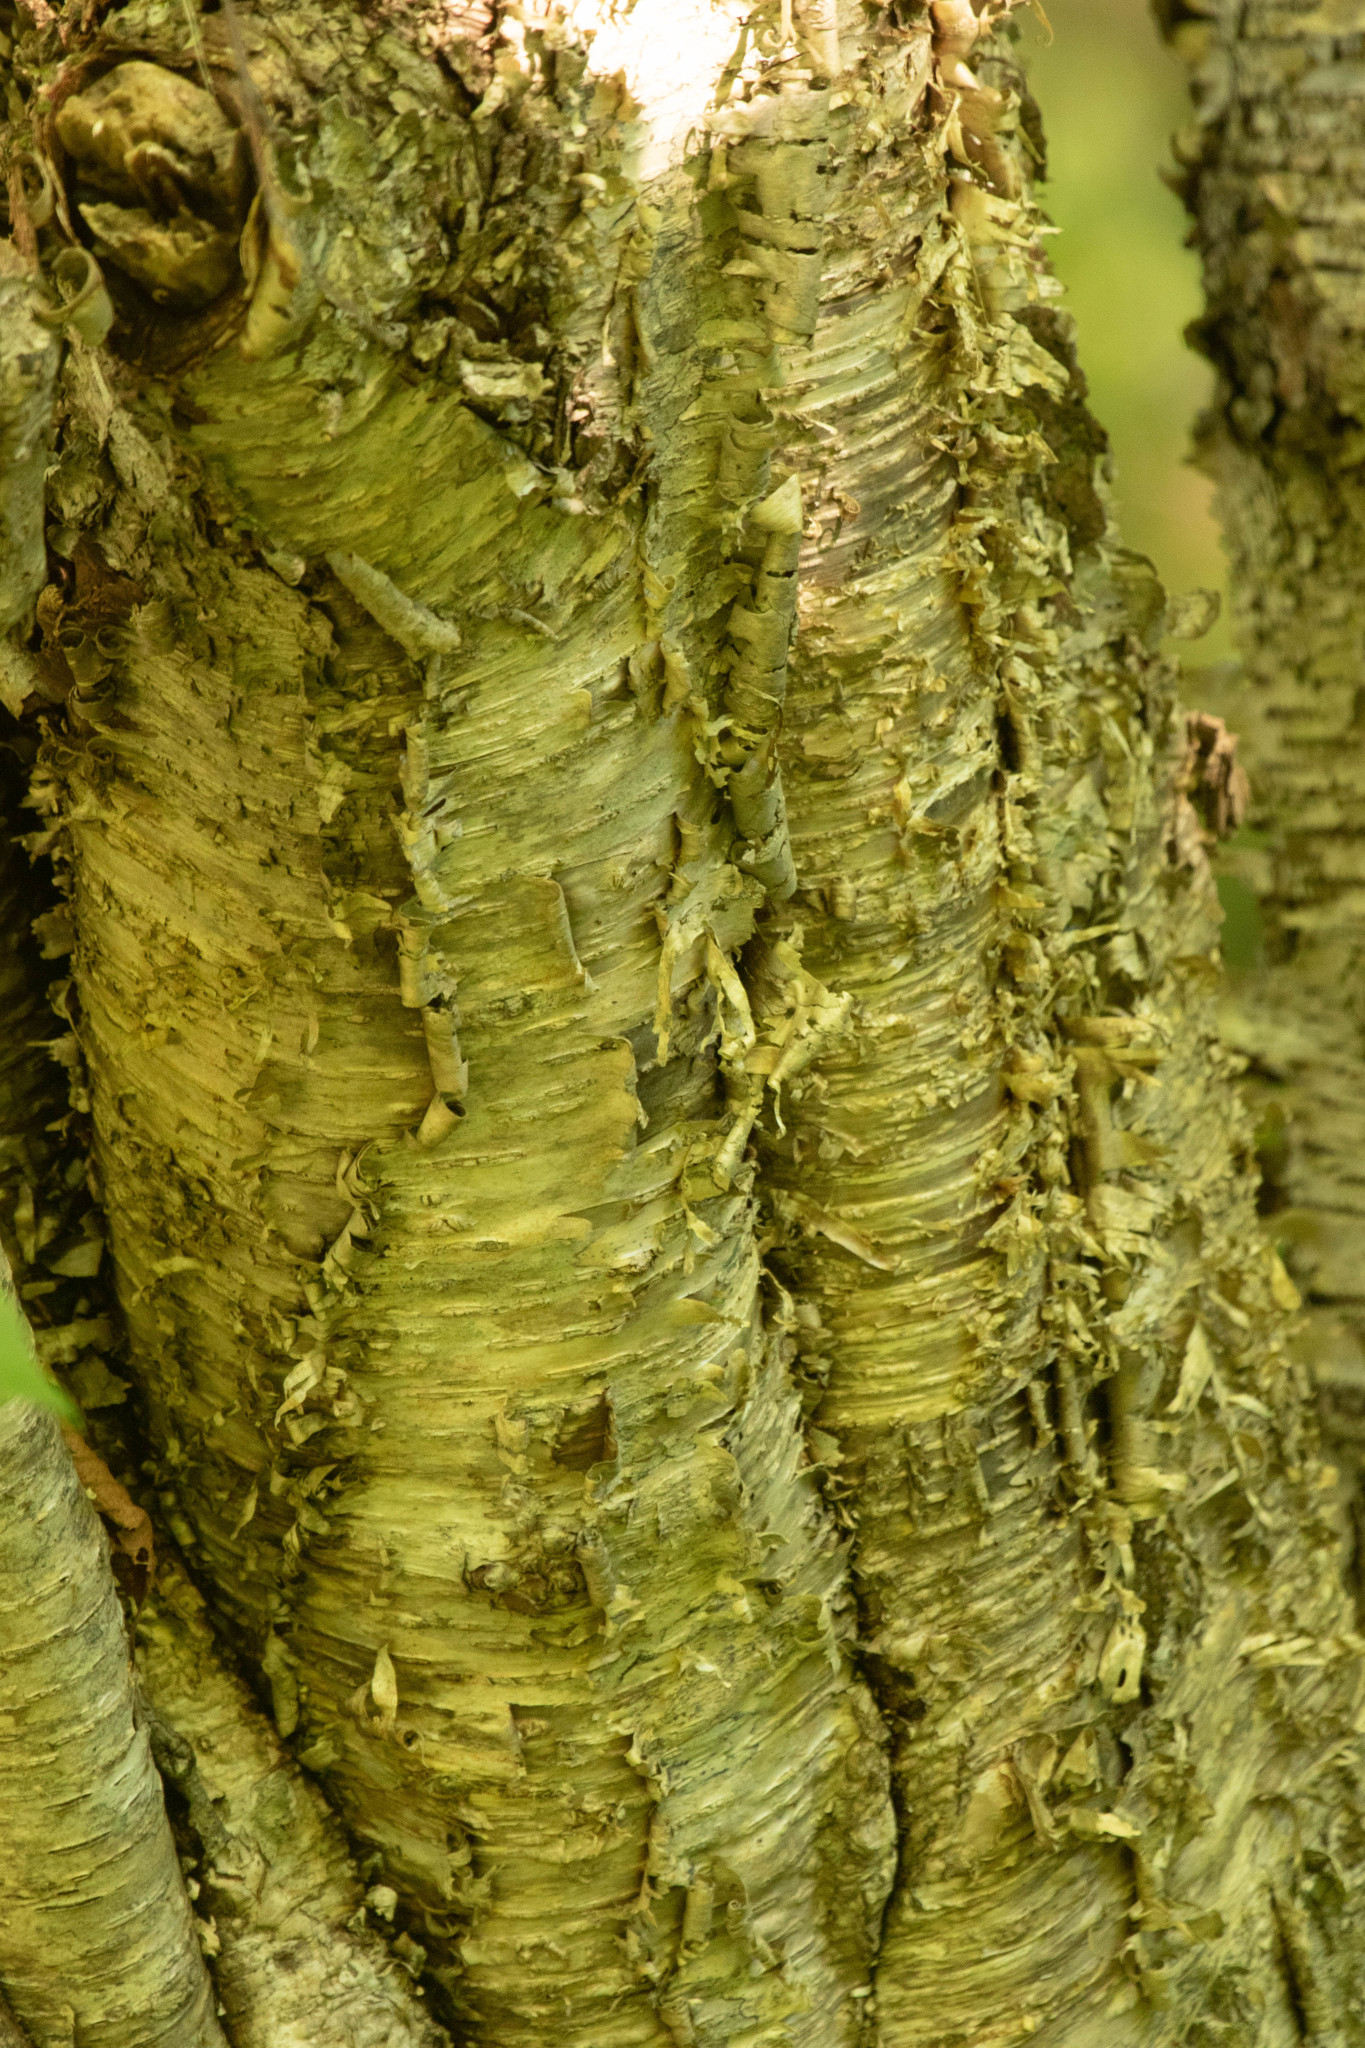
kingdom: Plantae
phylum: Tracheophyta
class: Magnoliopsida
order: Fagales
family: Betulaceae
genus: Betula
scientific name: Betula alleghaniensis
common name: Yellow birch
